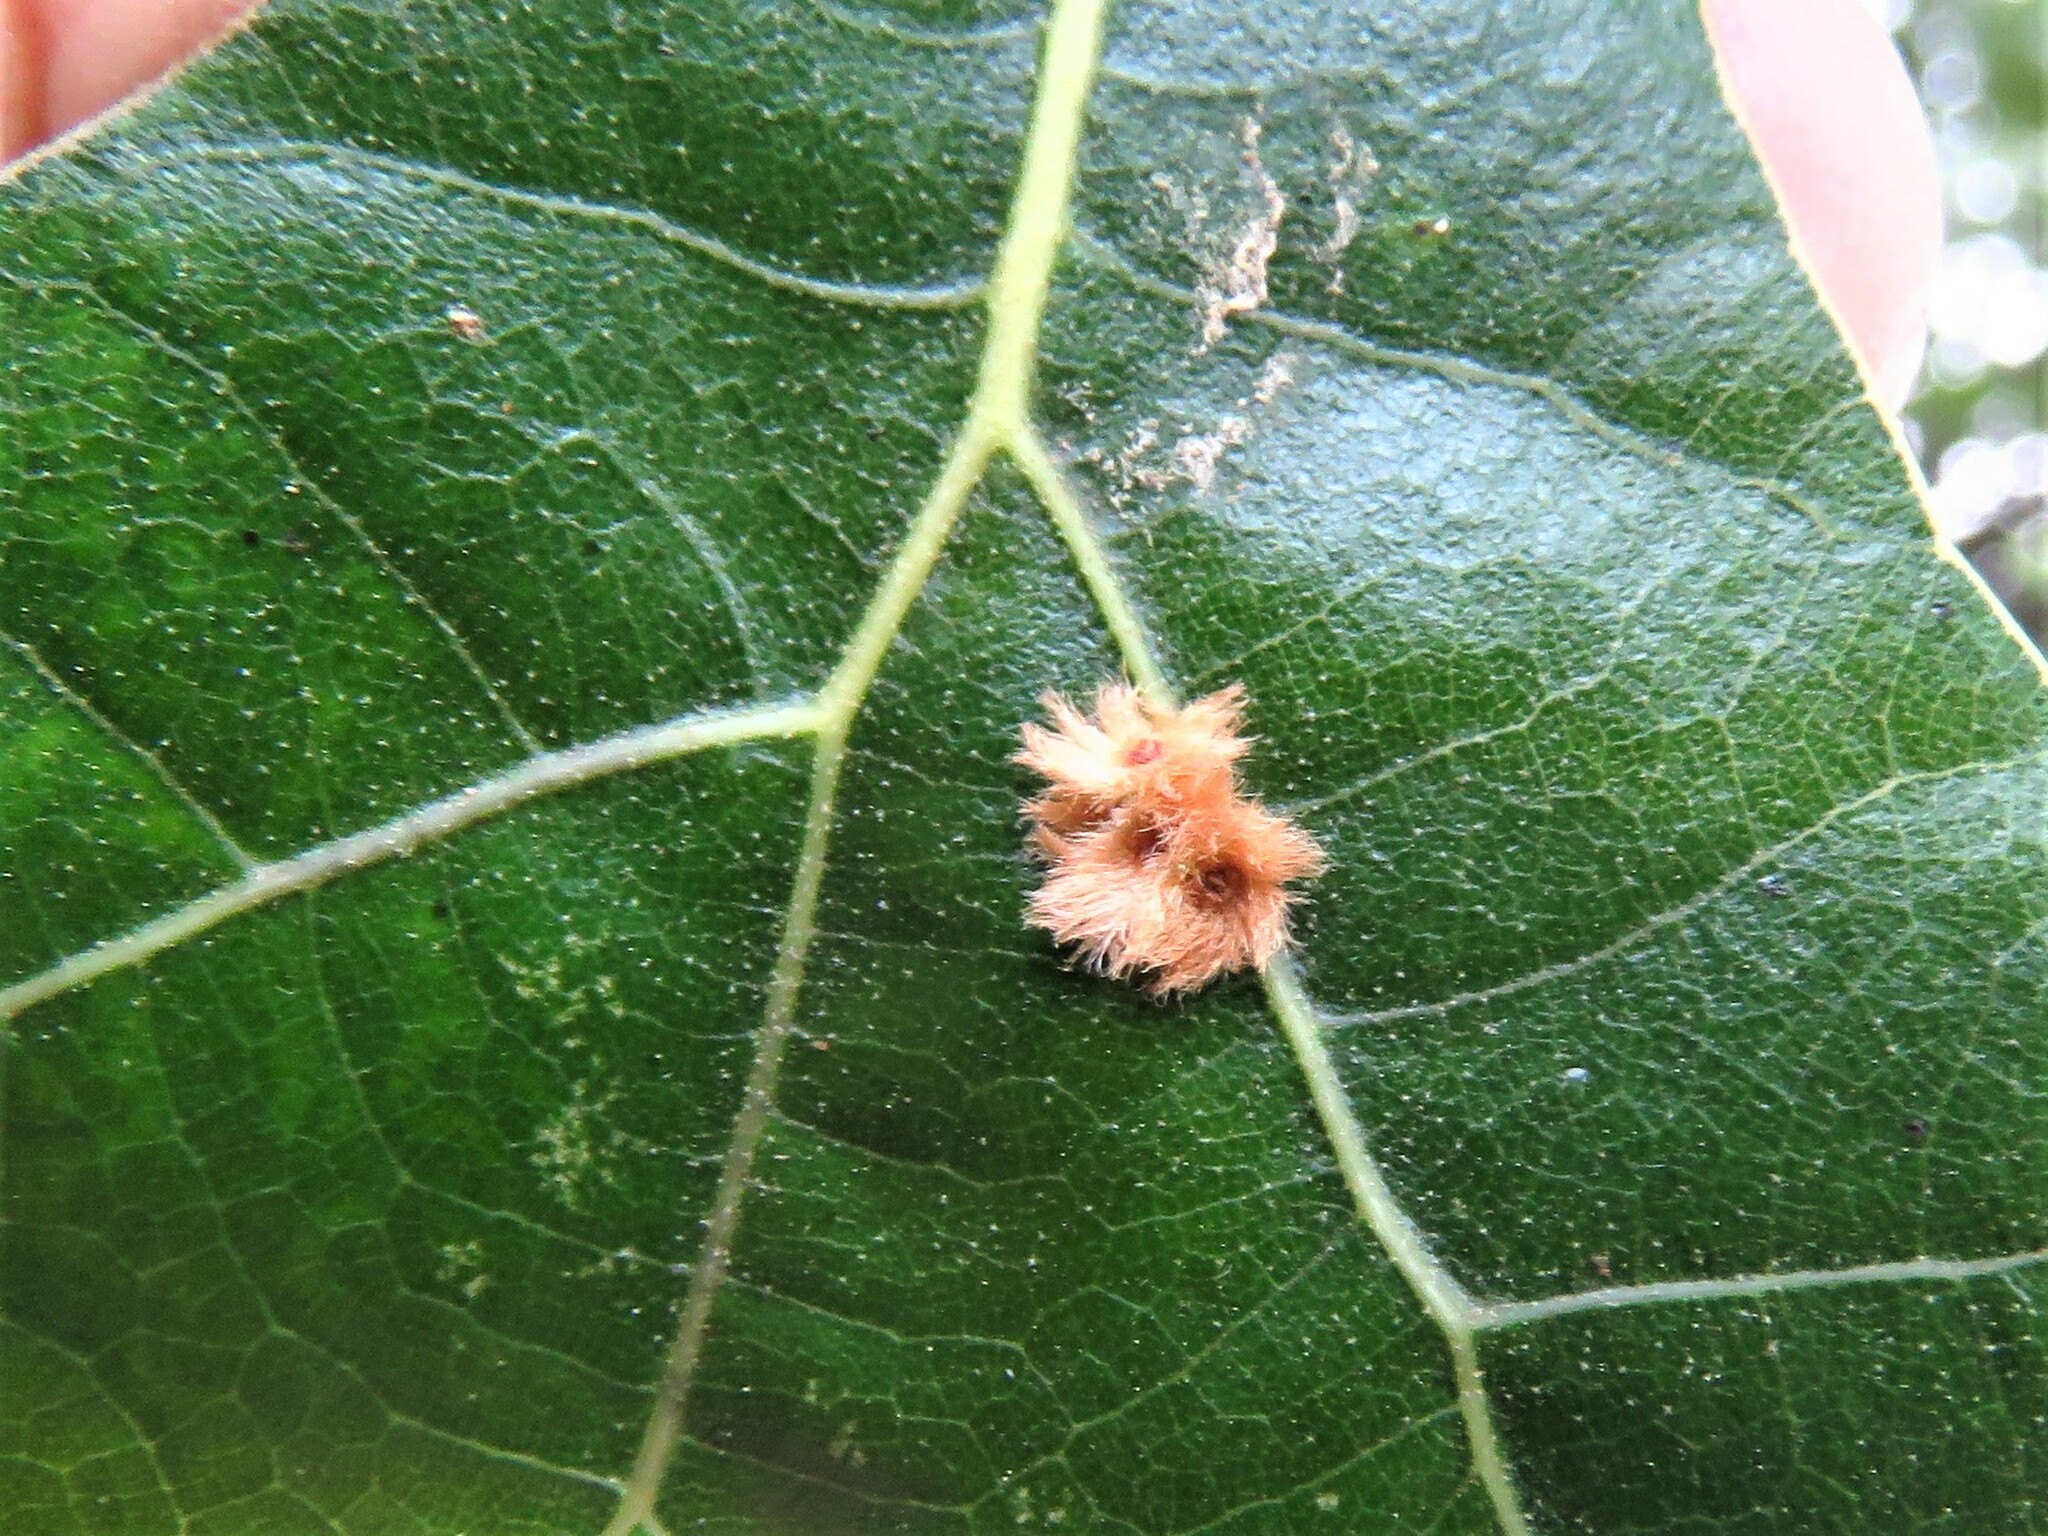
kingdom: Animalia
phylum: Arthropoda
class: Insecta
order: Hymenoptera
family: Cynipidae
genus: Callirhytis
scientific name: Callirhytis
